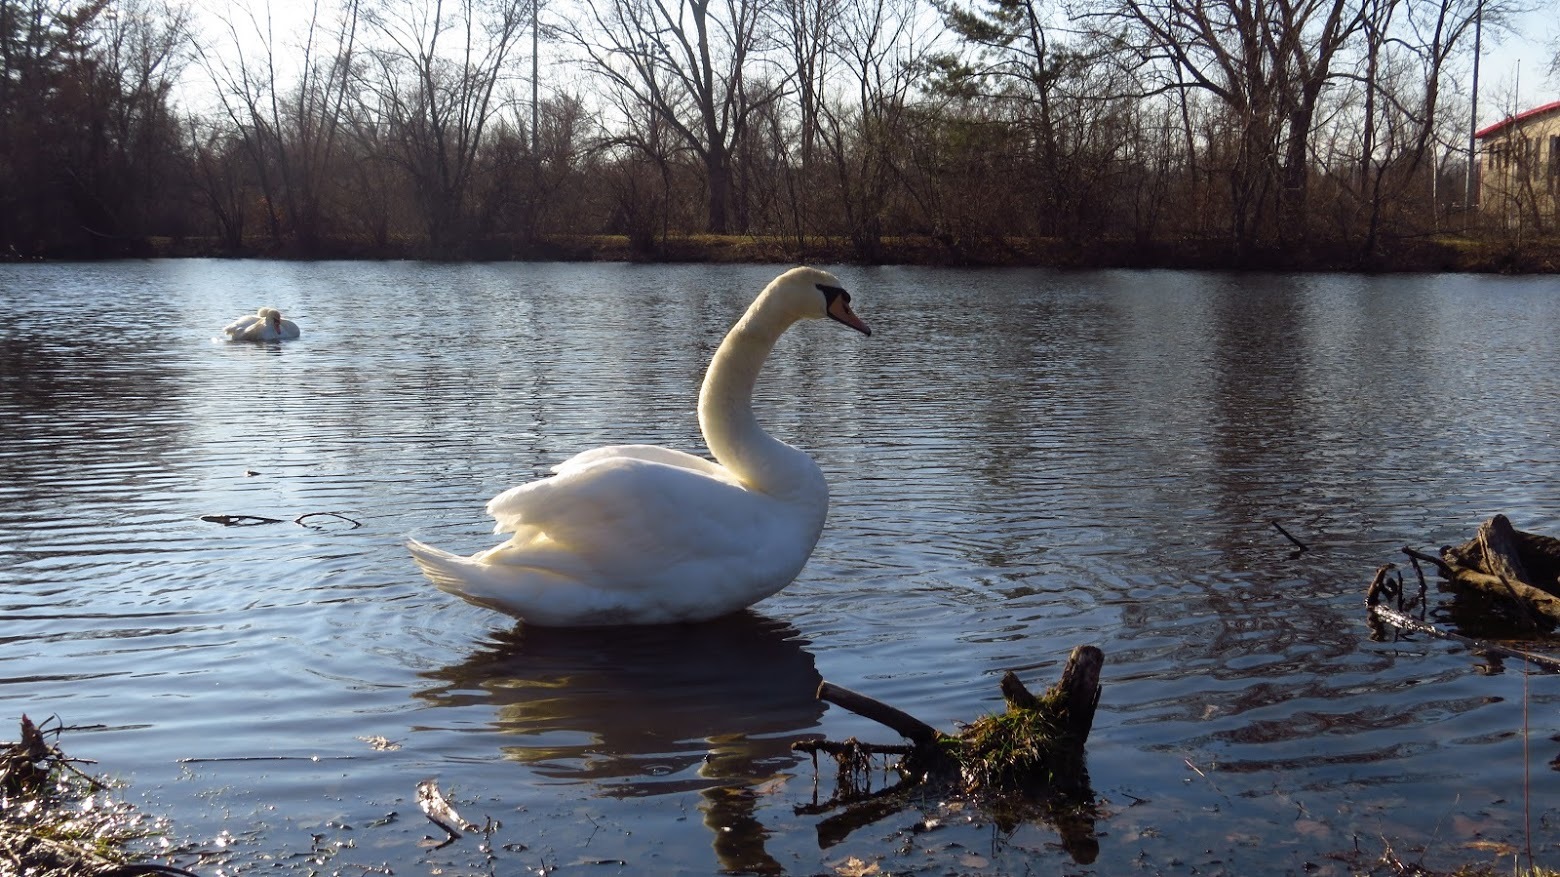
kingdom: Animalia
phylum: Chordata
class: Aves
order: Anseriformes
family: Anatidae
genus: Cygnus
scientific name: Cygnus olor
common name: Mute swan
